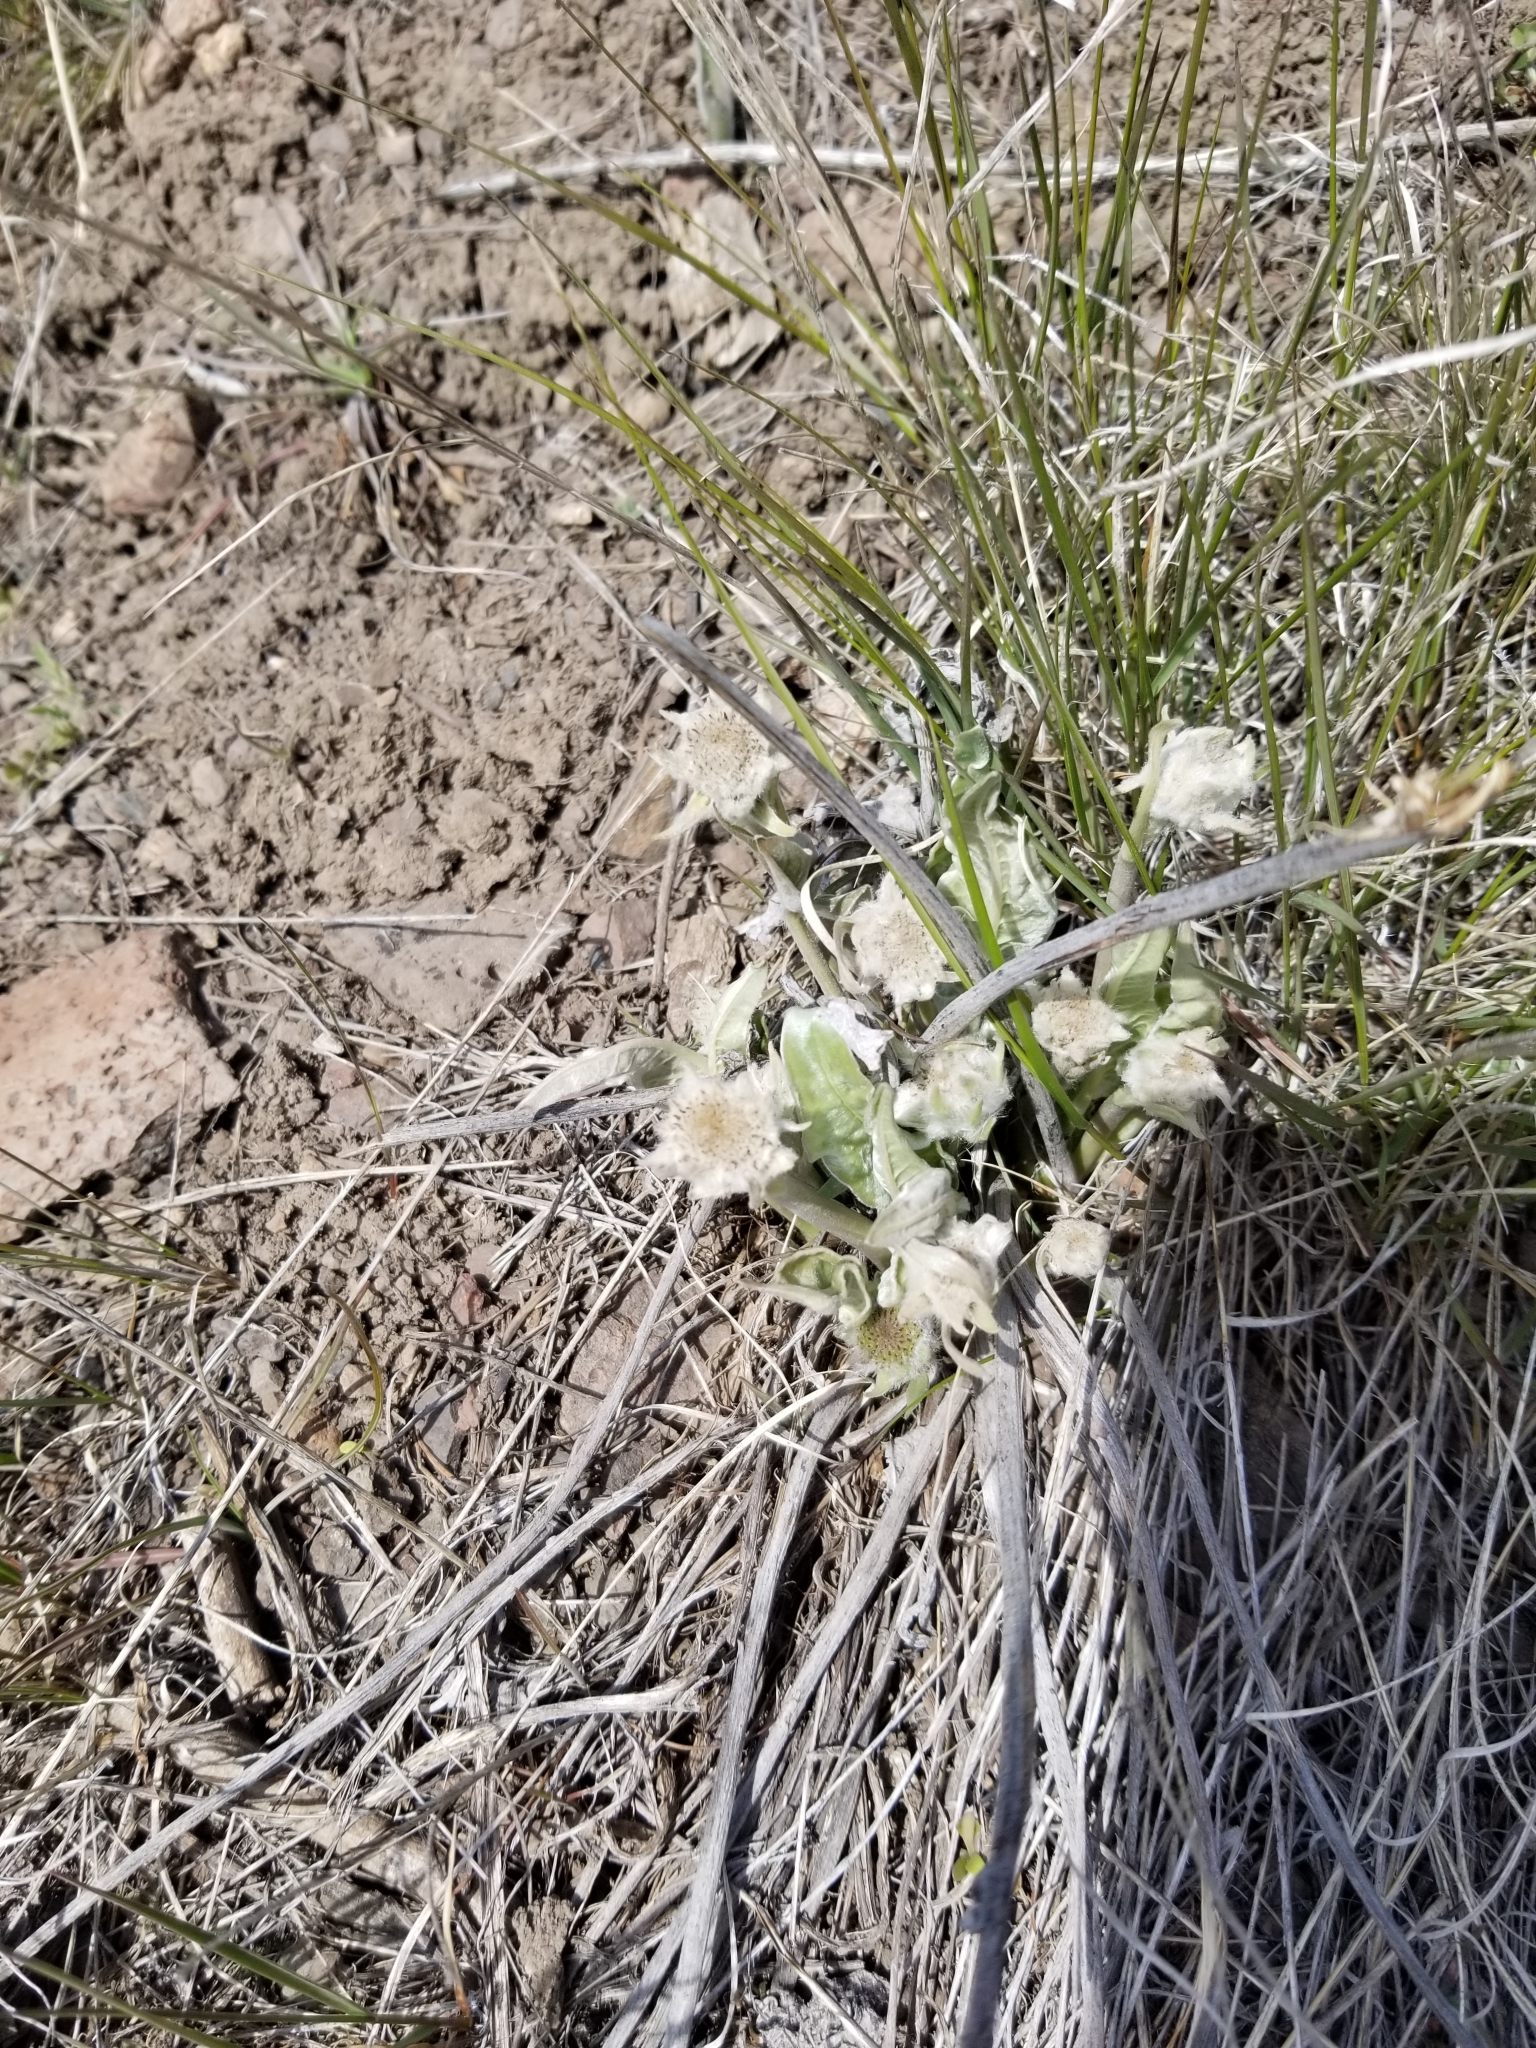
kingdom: Plantae
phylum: Tracheophyta
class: Magnoliopsida
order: Asterales
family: Asteraceae
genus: Wyethia
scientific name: Wyethia sagittata
